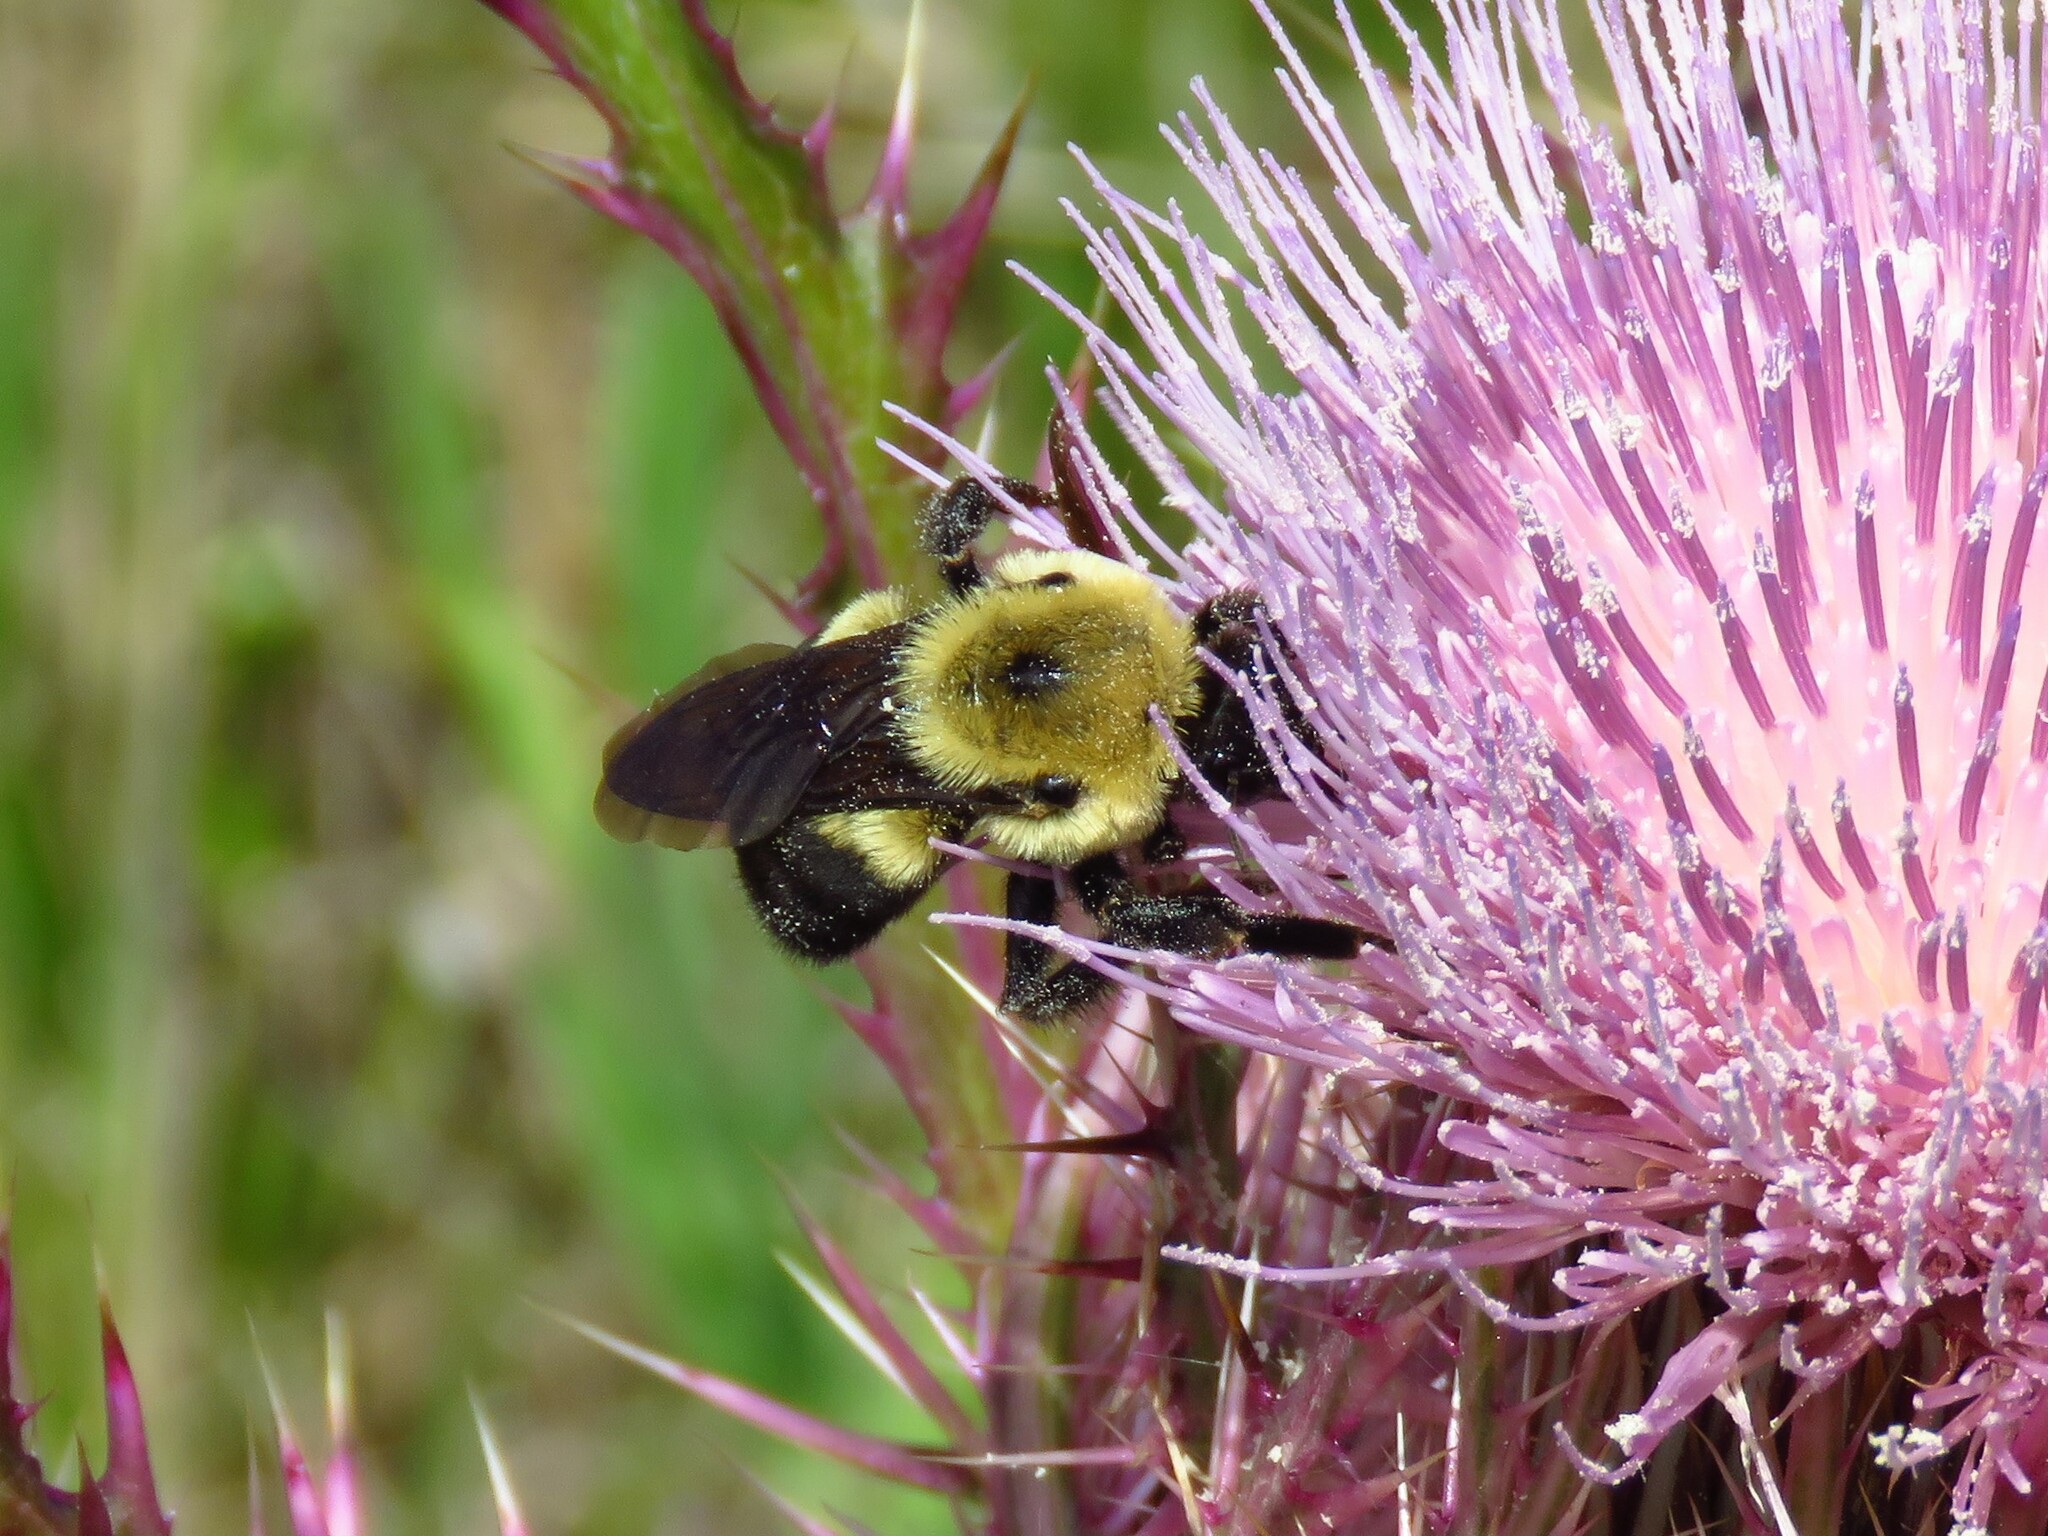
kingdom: Animalia
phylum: Arthropoda
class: Insecta
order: Hymenoptera
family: Apidae
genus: Bombus
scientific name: Bombus griseocollis
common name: Brown-belted bumble bee
